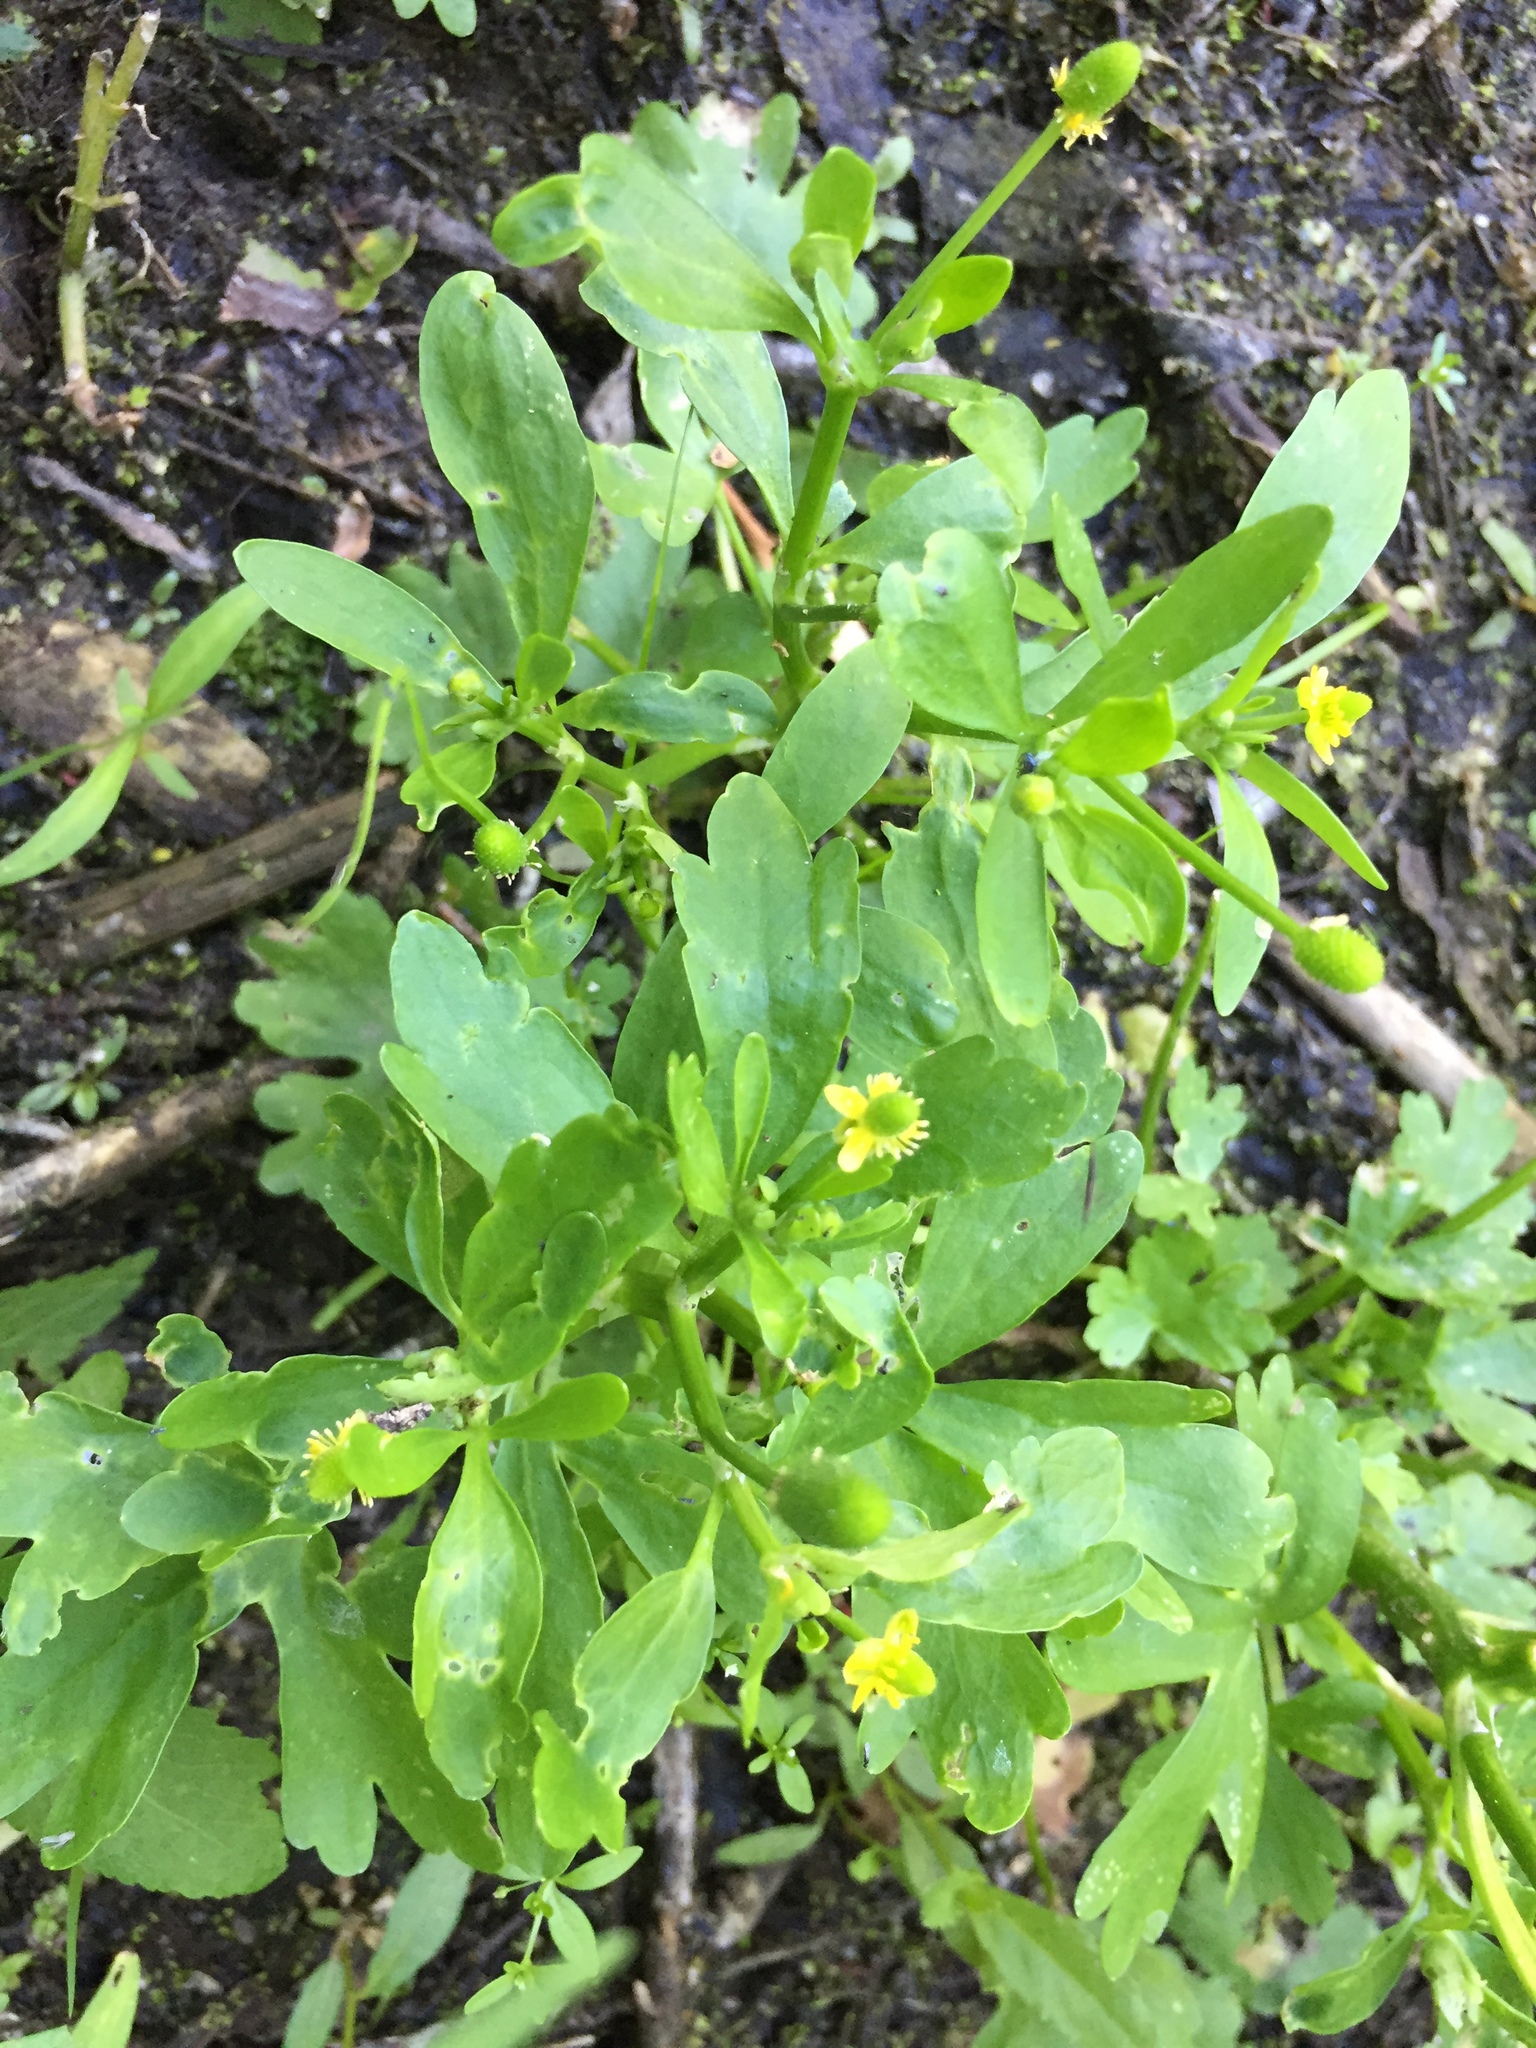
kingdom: Plantae
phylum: Tracheophyta
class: Magnoliopsida
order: Ranunculales
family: Ranunculaceae
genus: Ranunculus
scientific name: Ranunculus sceleratus
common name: Celery-leaved buttercup
